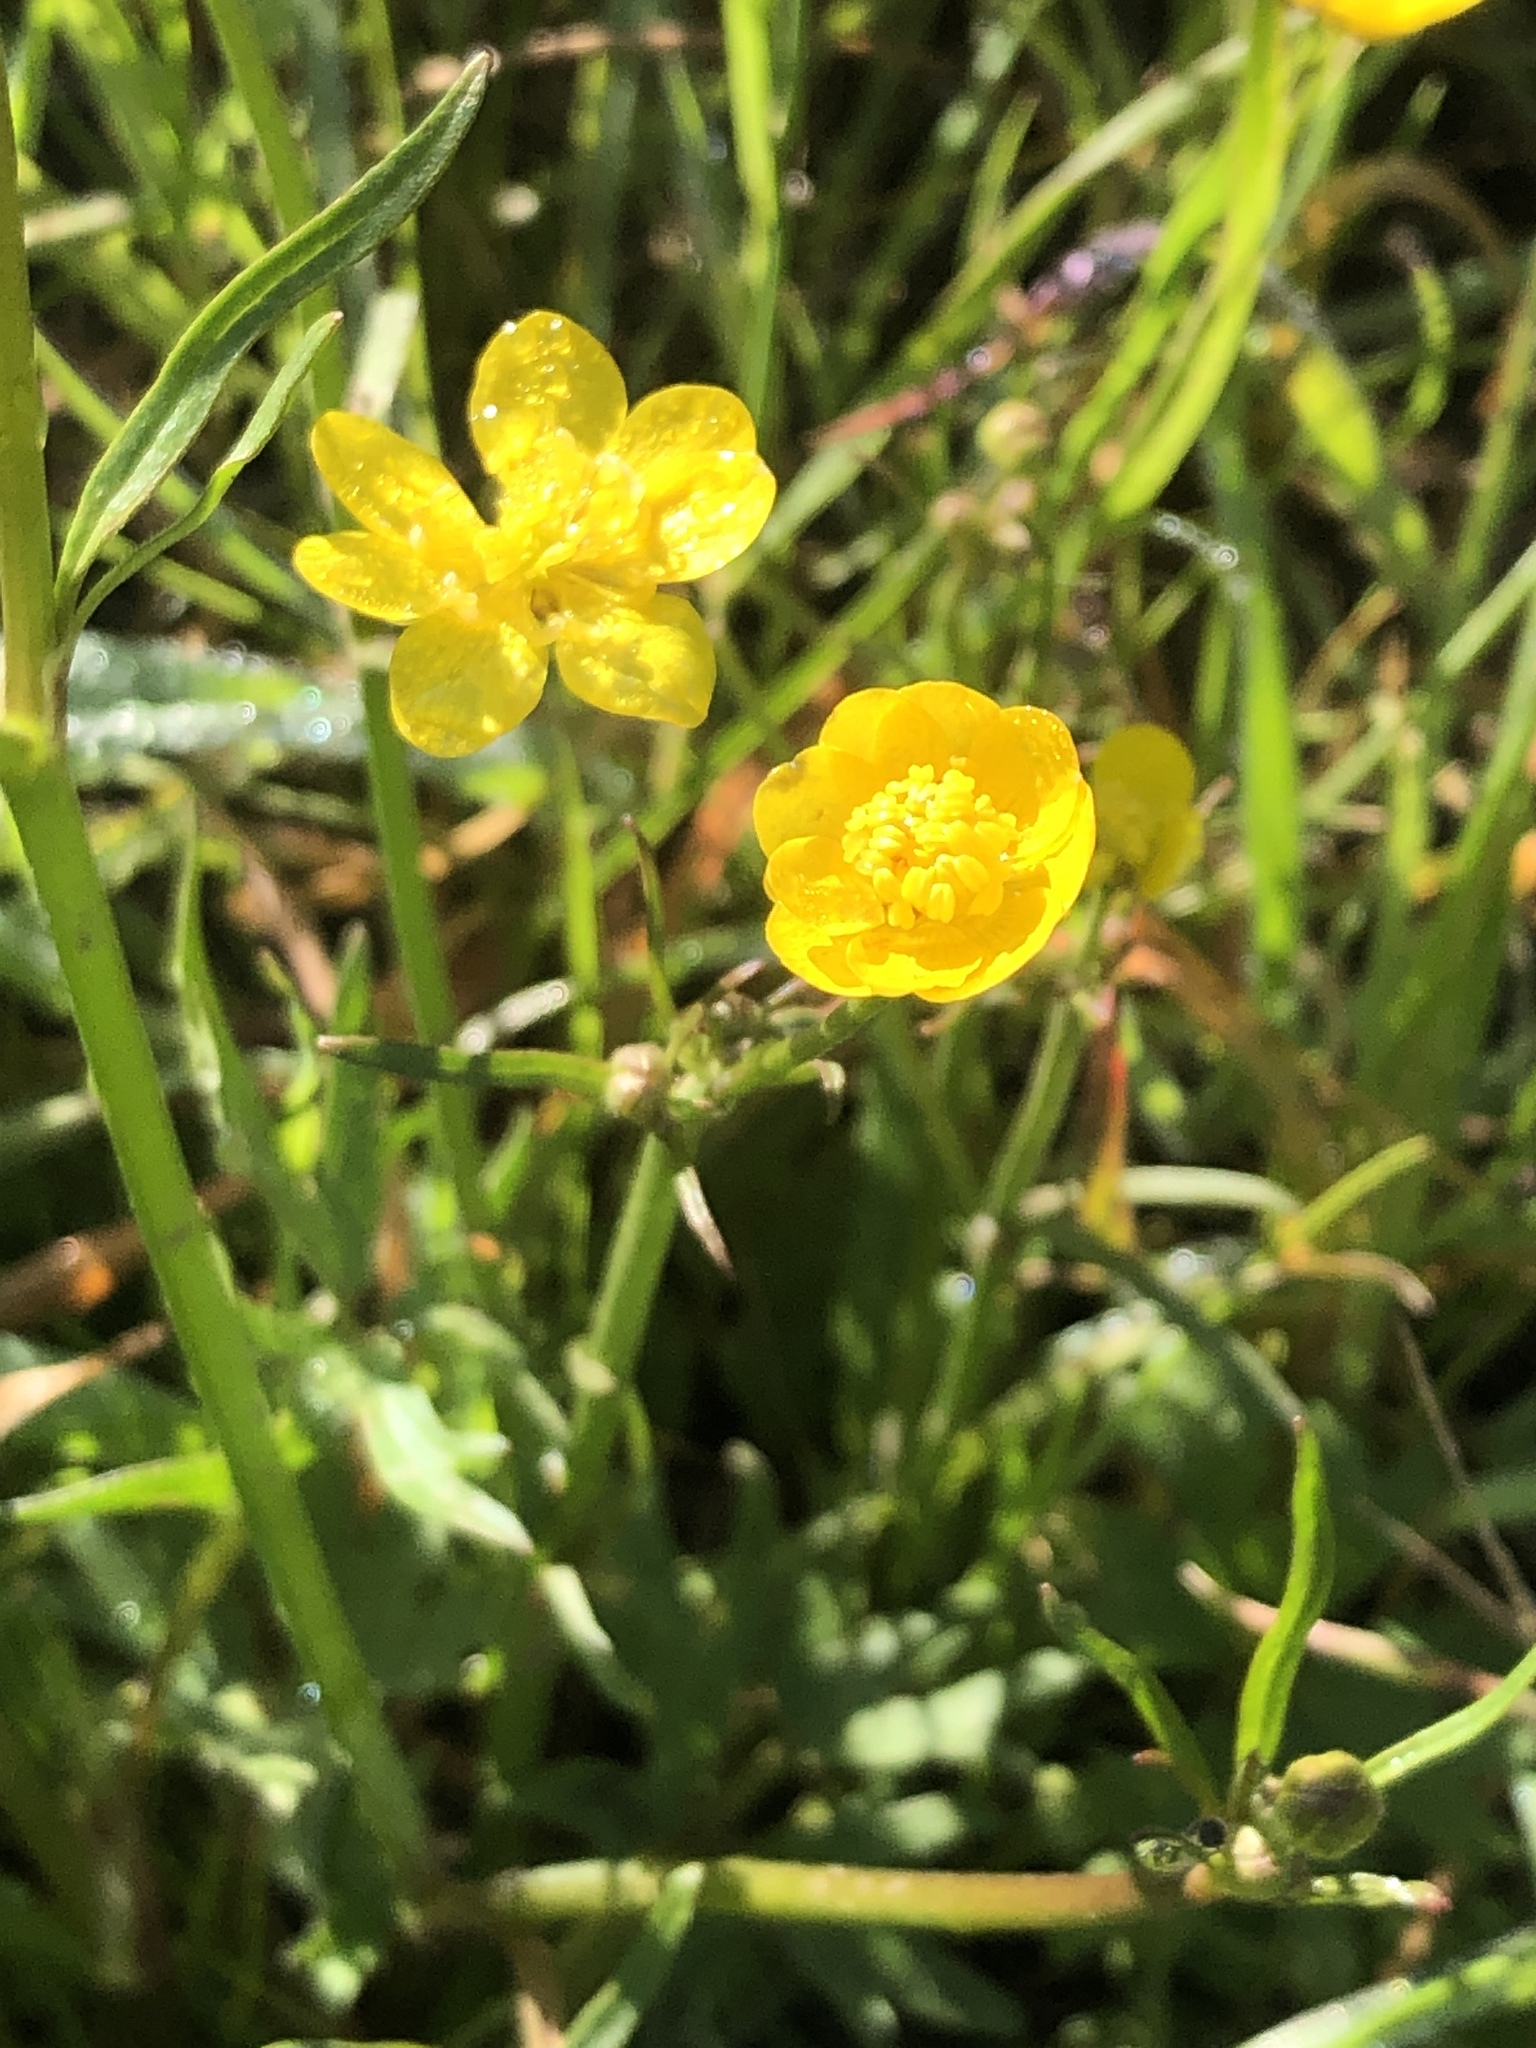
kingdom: Plantae
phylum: Tracheophyta
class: Magnoliopsida
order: Ranunculales
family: Ranunculaceae
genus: Ranunculus
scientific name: Ranunculus californicus
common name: California buttercup
